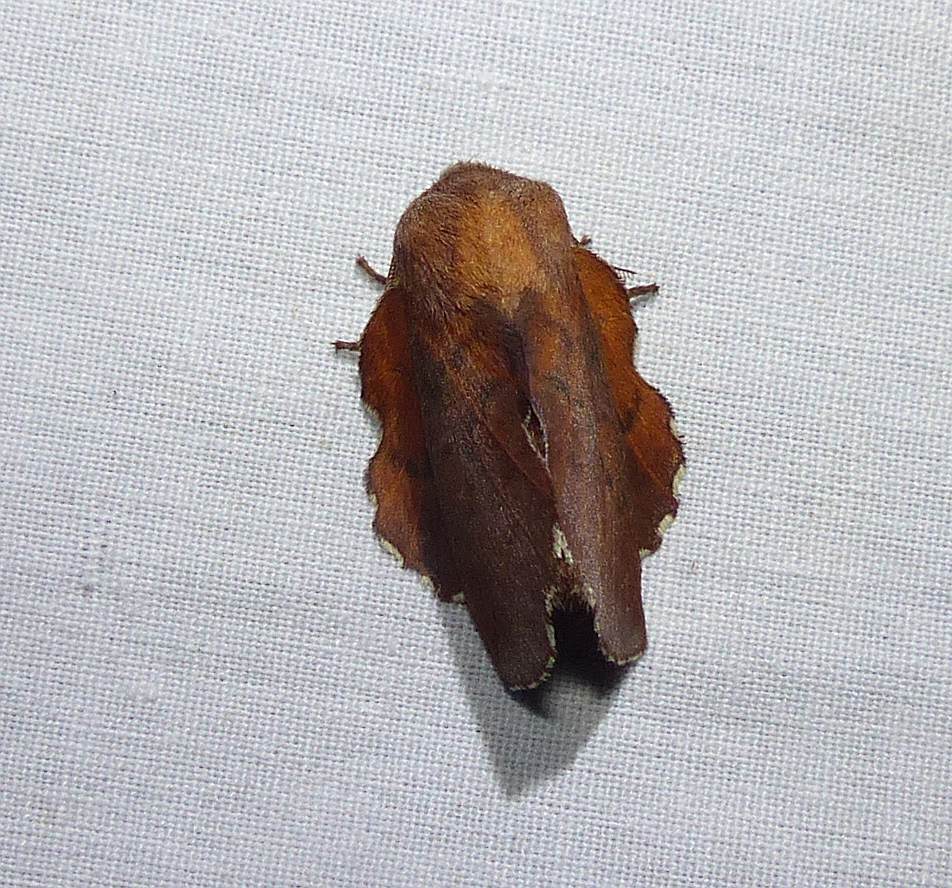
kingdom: Animalia
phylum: Arthropoda
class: Insecta
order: Lepidoptera
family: Lasiocampidae
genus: Phyllodesma
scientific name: Phyllodesma americana
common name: American lappet moth
